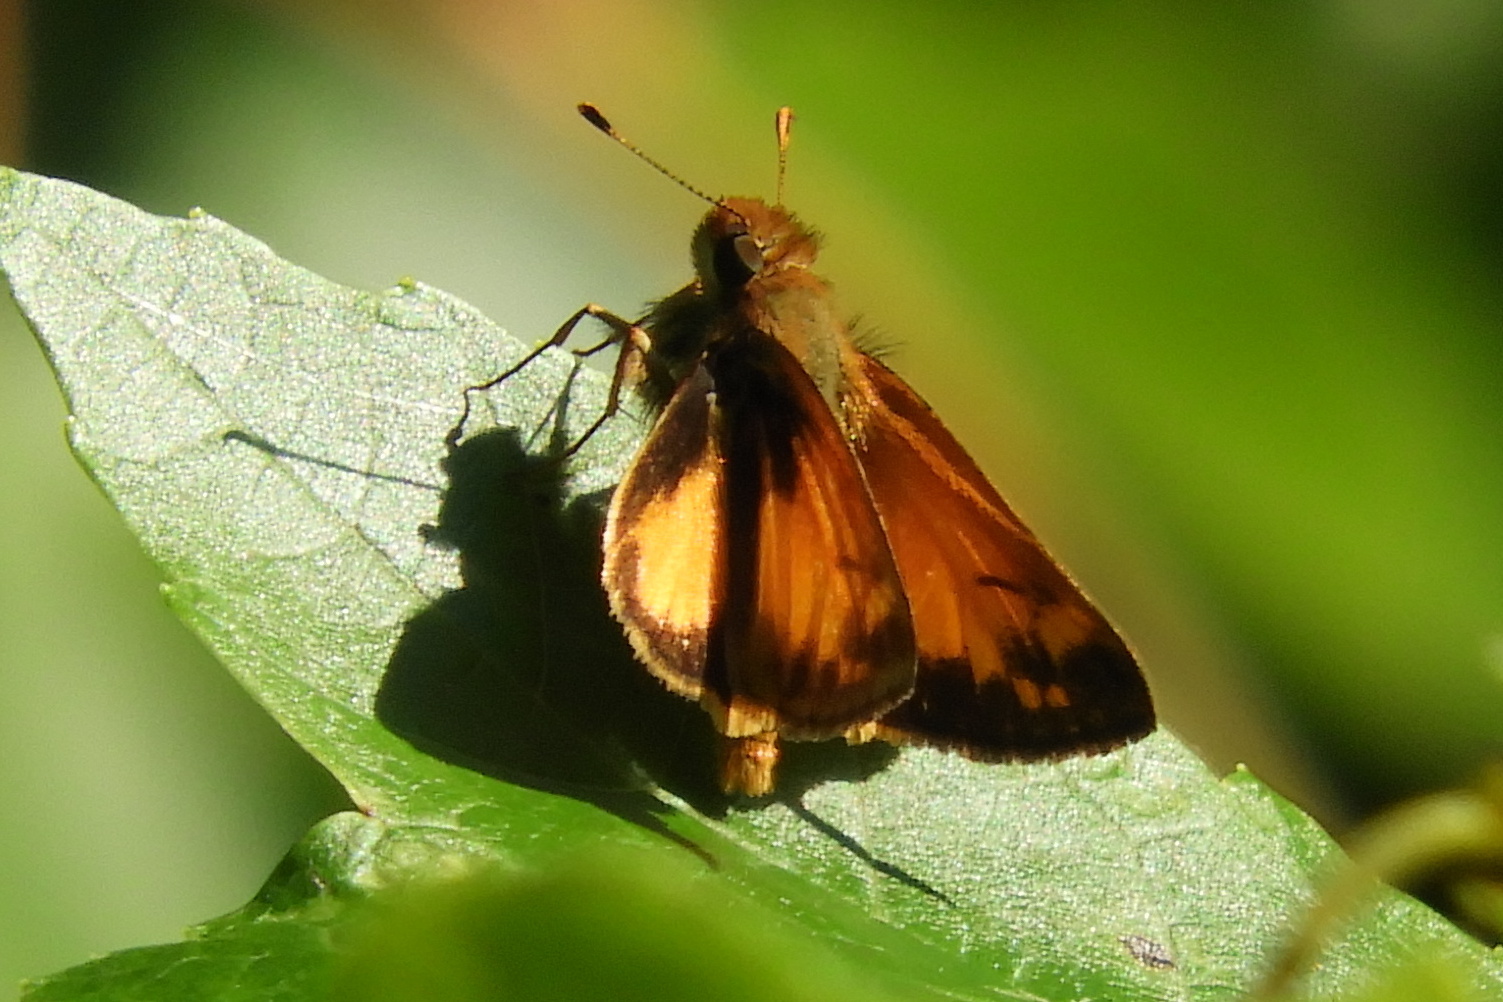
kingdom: Animalia
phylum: Arthropoda
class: Insecta
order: Lepidoptera
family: Hesperiidae
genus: Lon
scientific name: Lon zabulon
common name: Zabulon skipper
